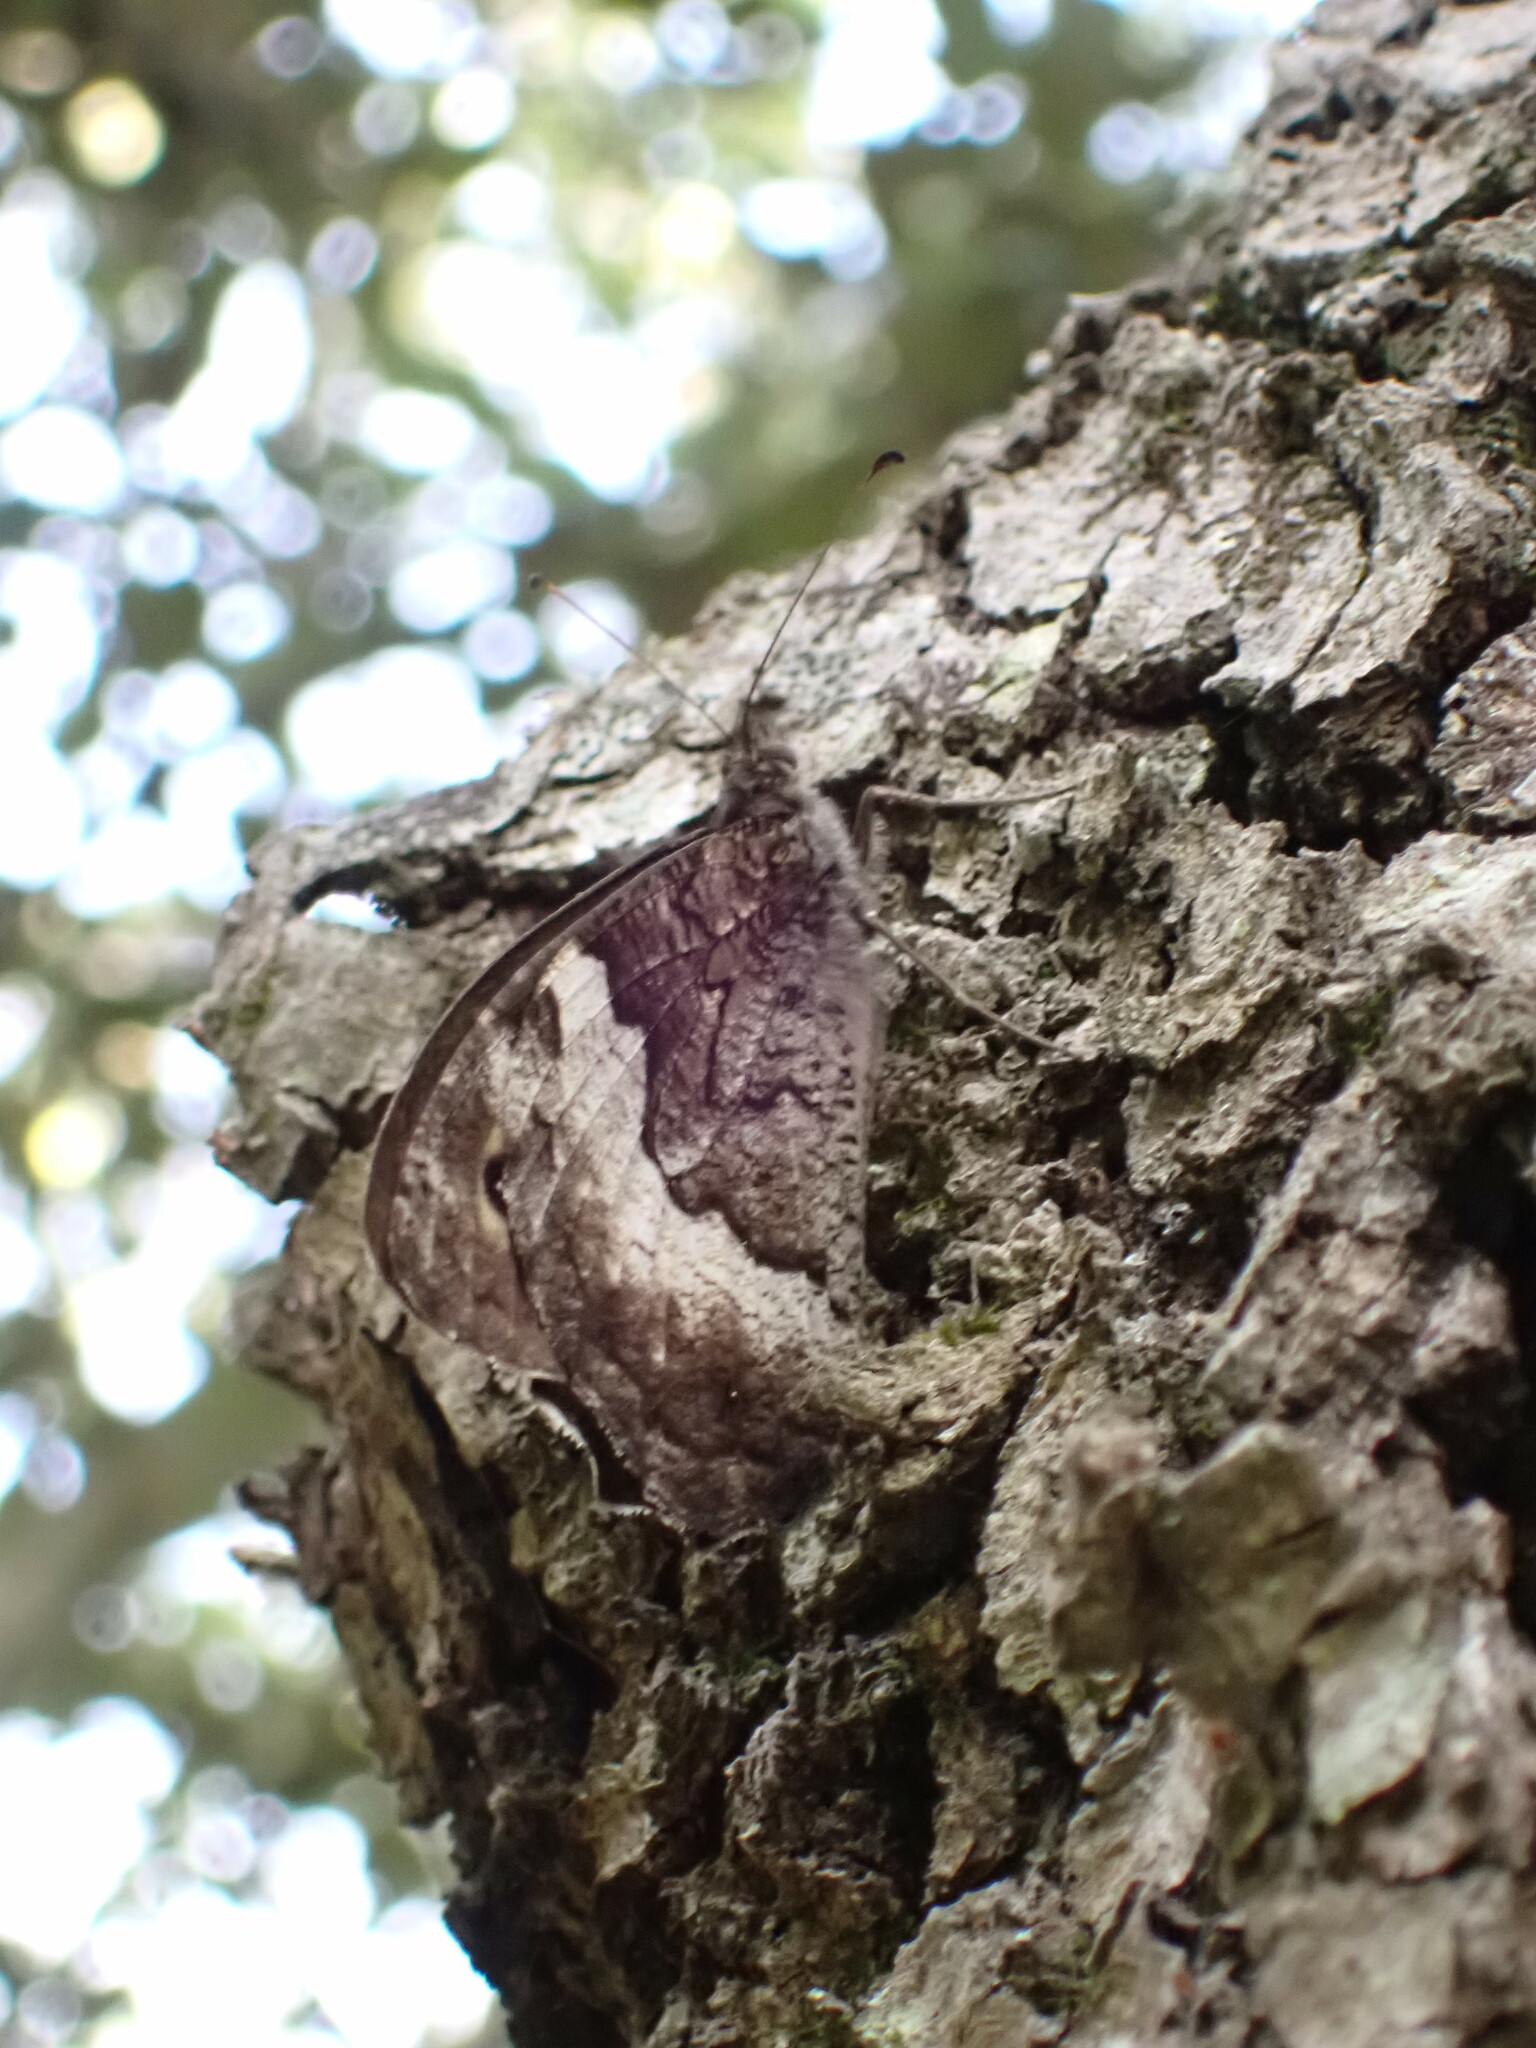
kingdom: Animalia
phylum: Arthropoda
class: Insecta
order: Lepidoptera
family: Nymphalidae
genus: Hipparchia
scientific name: Hipparchia fagi
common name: Woodland grayling
